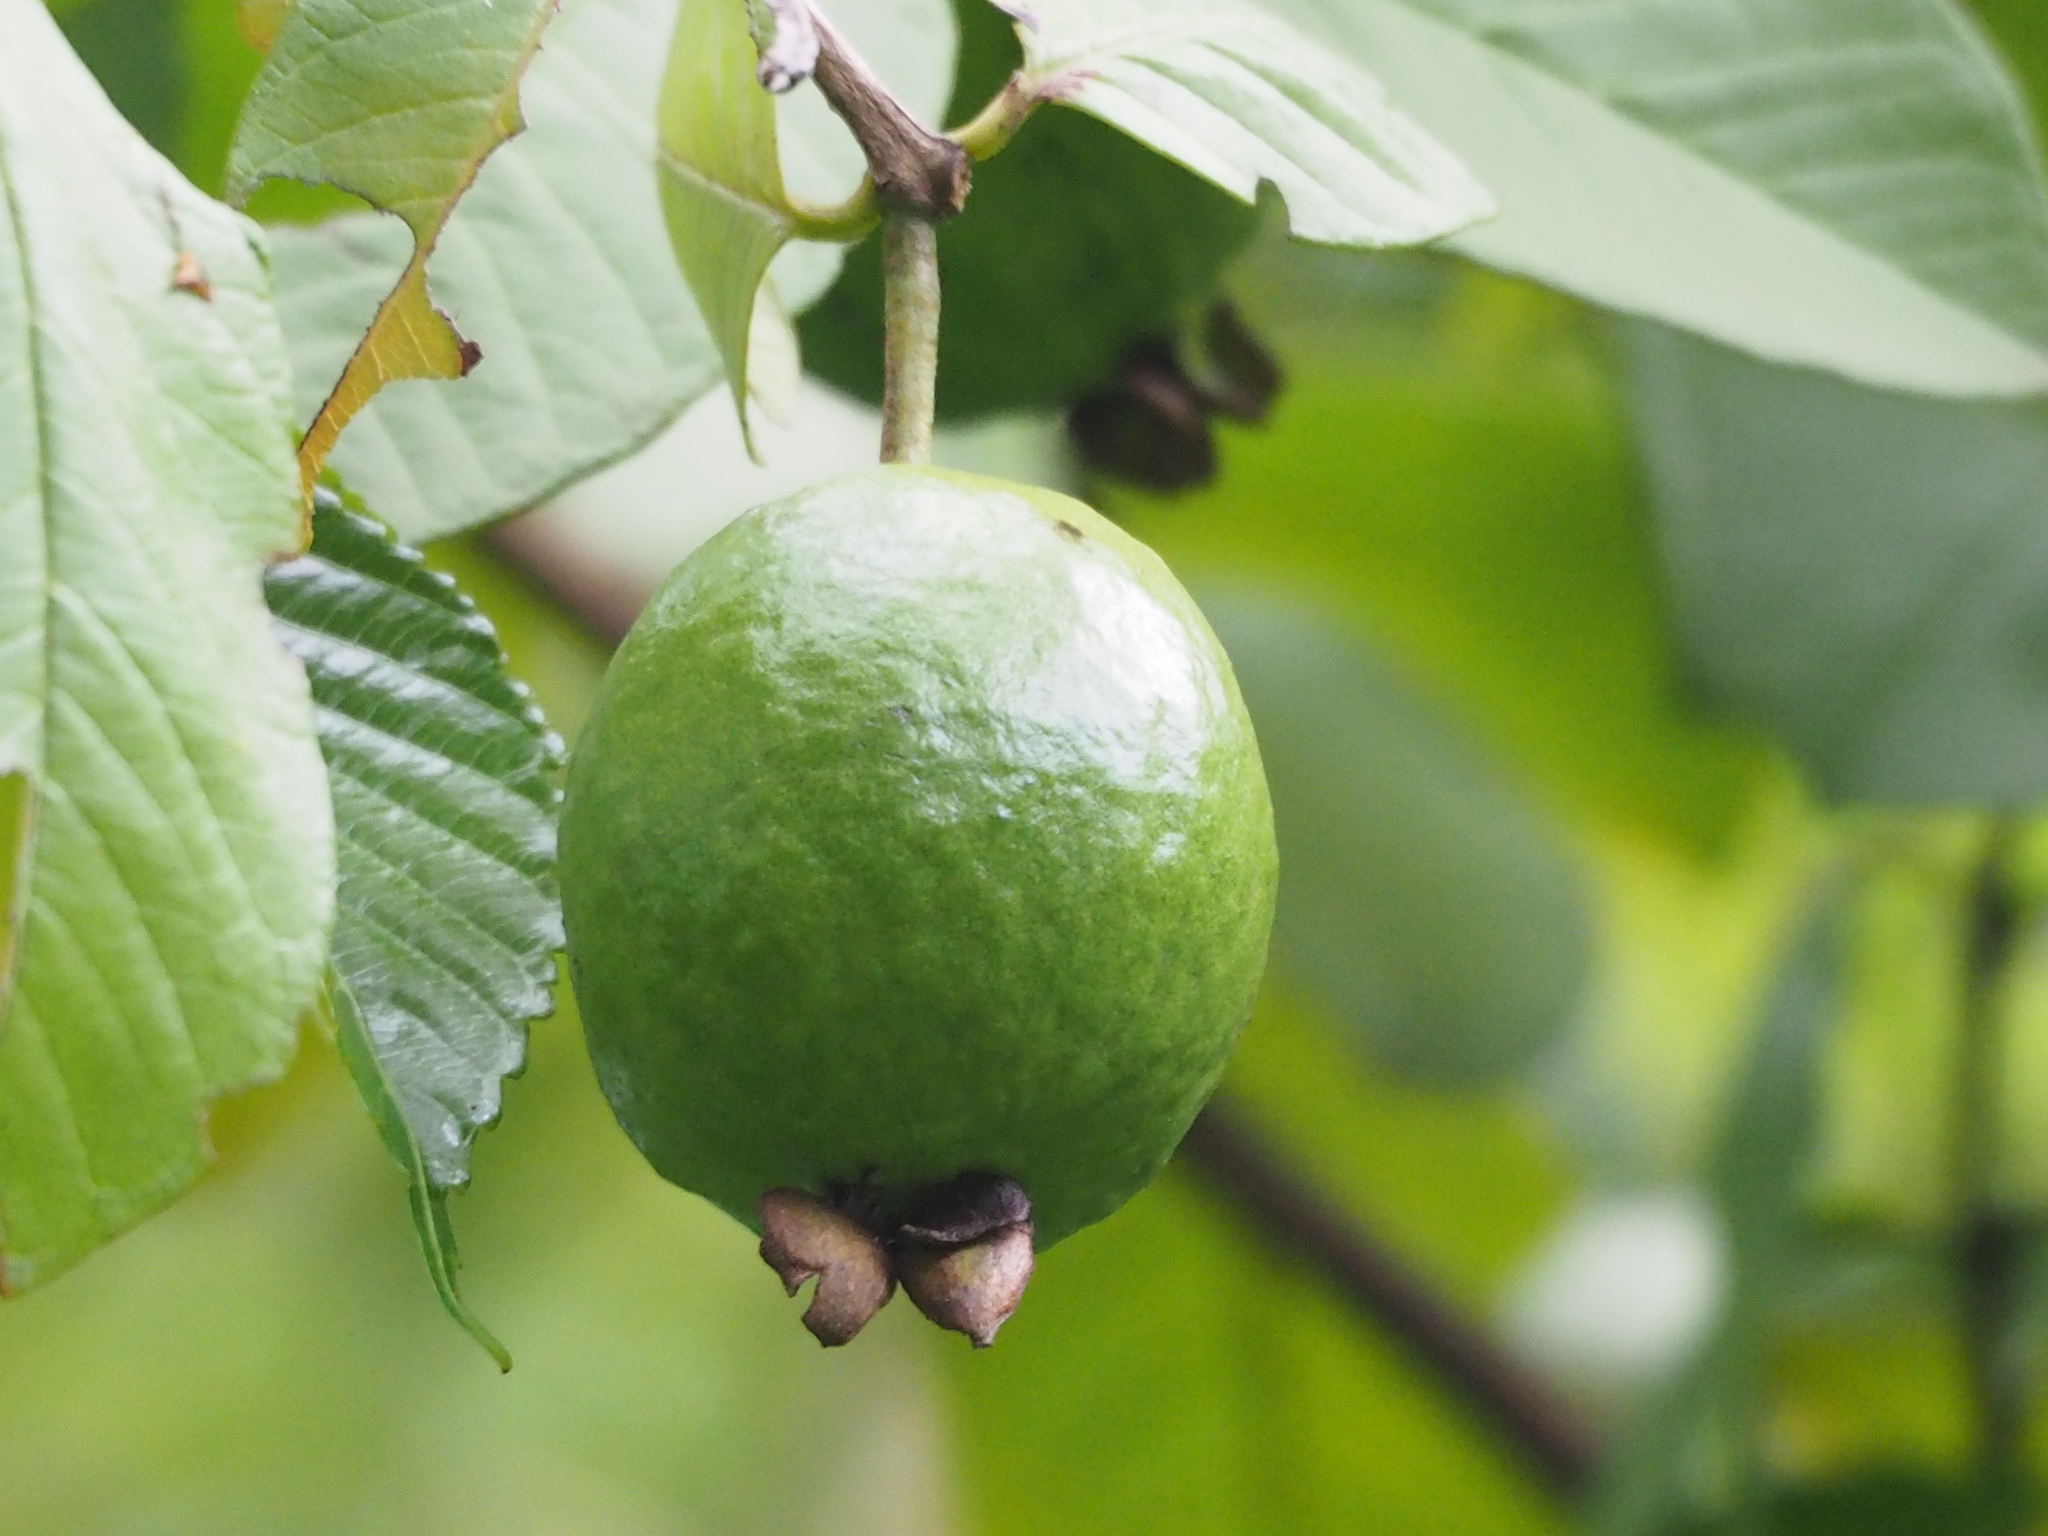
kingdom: Plantae
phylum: Tracheophyta
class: Magnoliopsida
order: Myrtales
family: Myrtaceae
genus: Psidium
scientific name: Psidium guajava
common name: Guava
